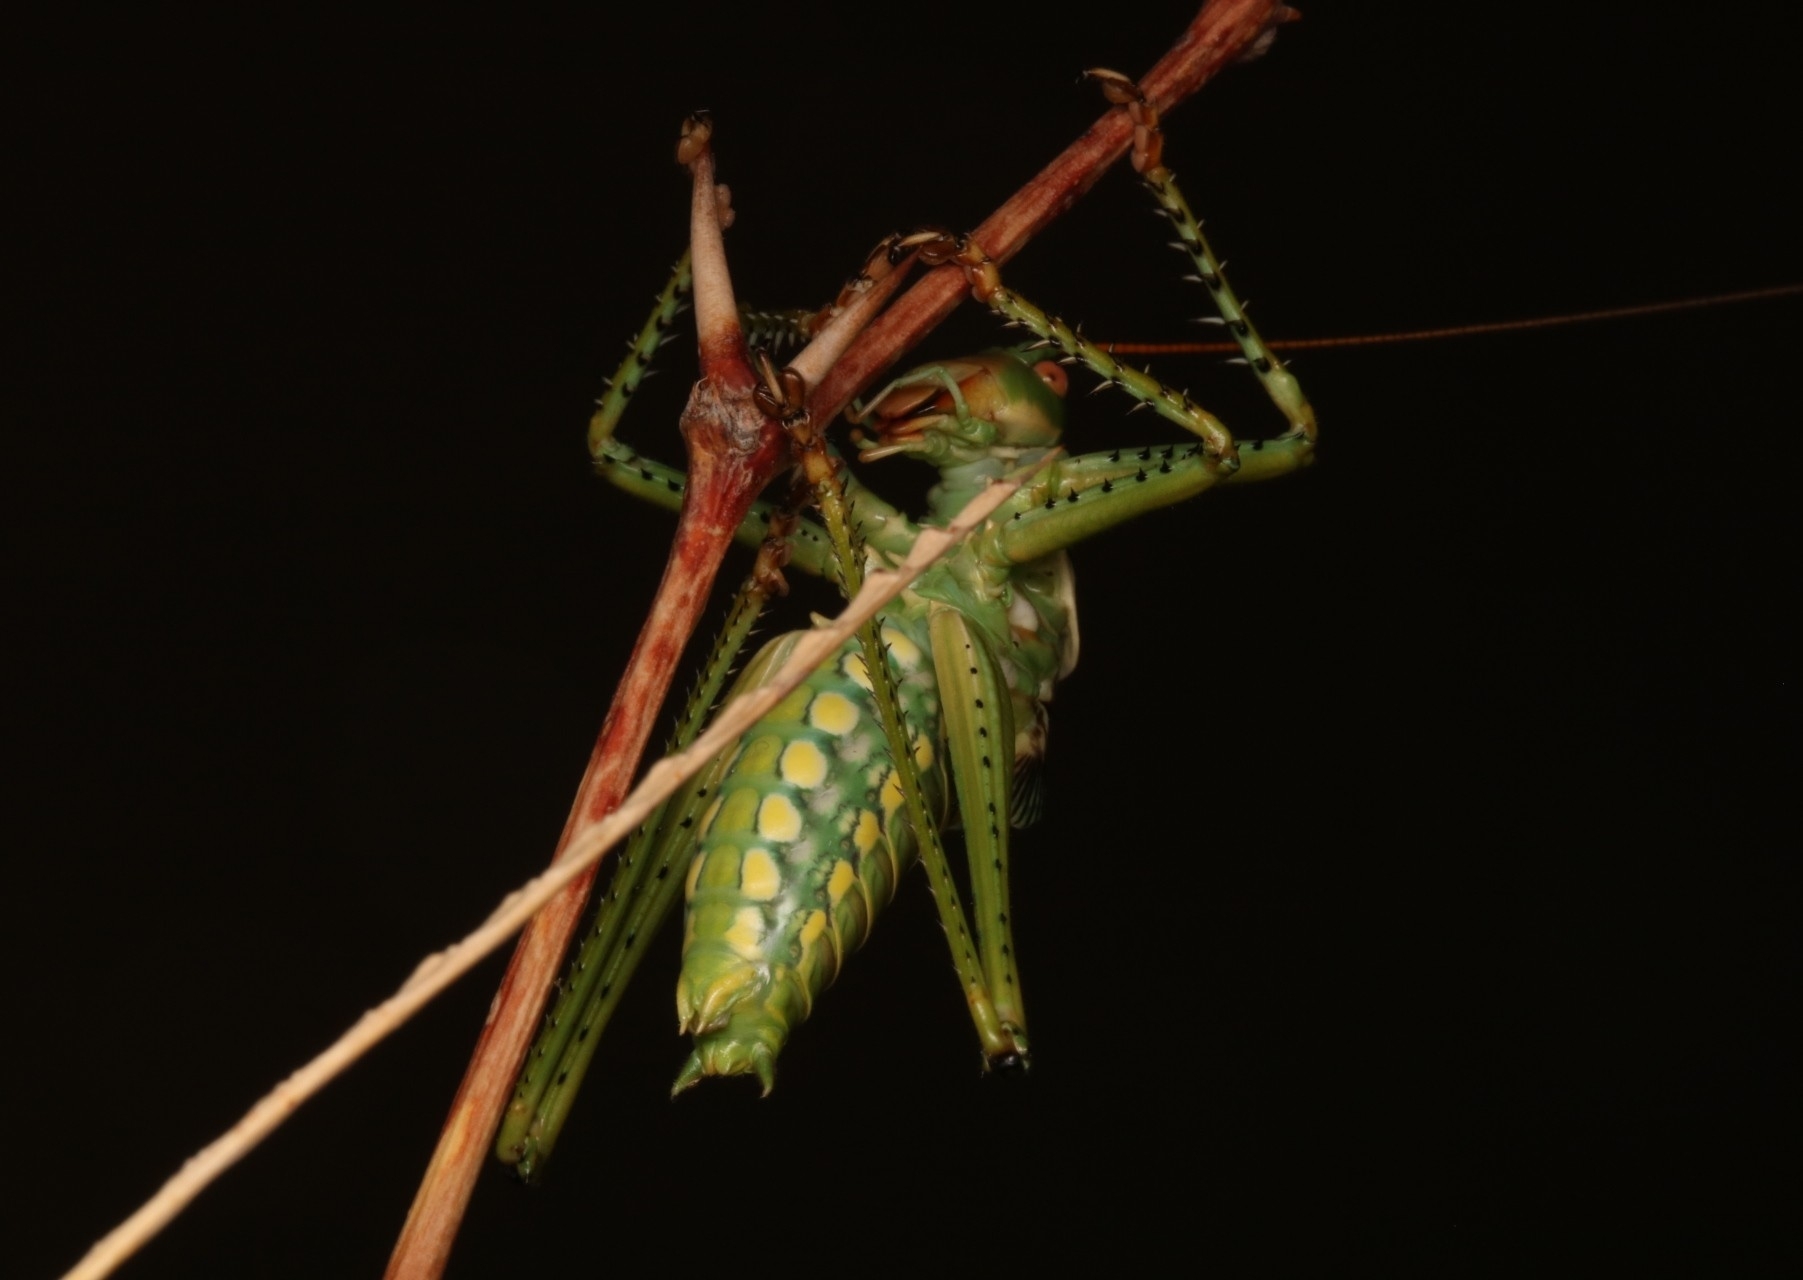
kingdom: Animalia
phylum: Arthropoda
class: Insecta
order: Orthoptera
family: Tettigoniidae
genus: Neobarrettia
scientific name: Neobarrettia spinosa
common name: Greater arid-land katydid
